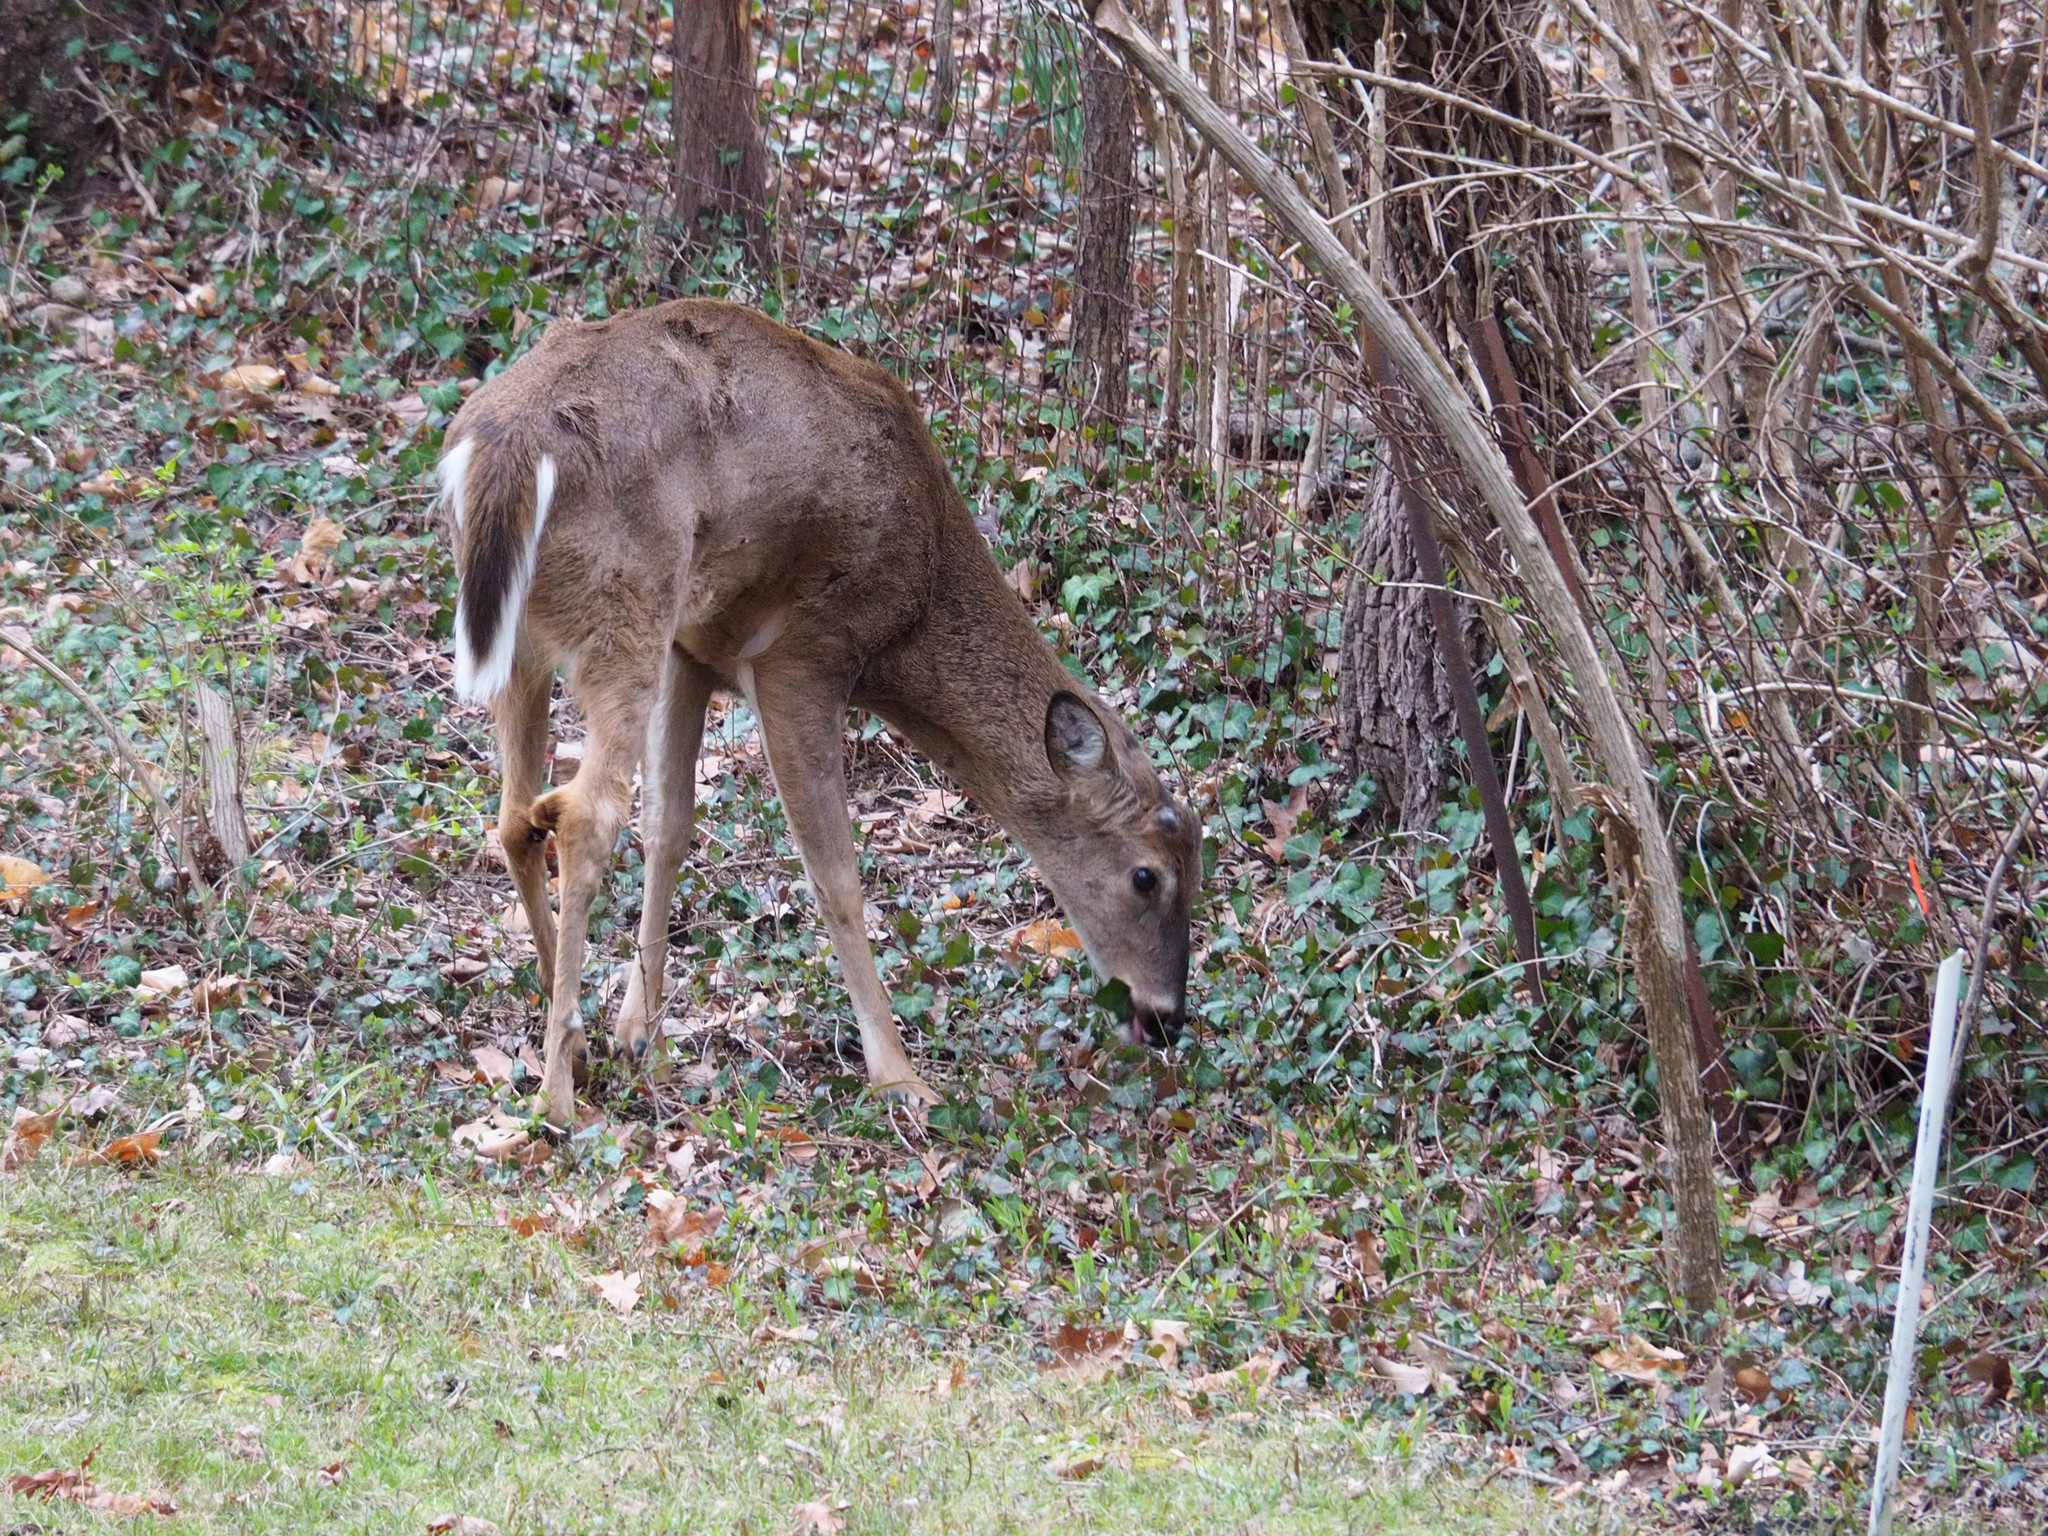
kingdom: Animalia
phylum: Chordata
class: Mammalia
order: Artiodactyla
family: Cervidae
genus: Odocoileus
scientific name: Odocoileus virginianus
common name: White-tailed deer
